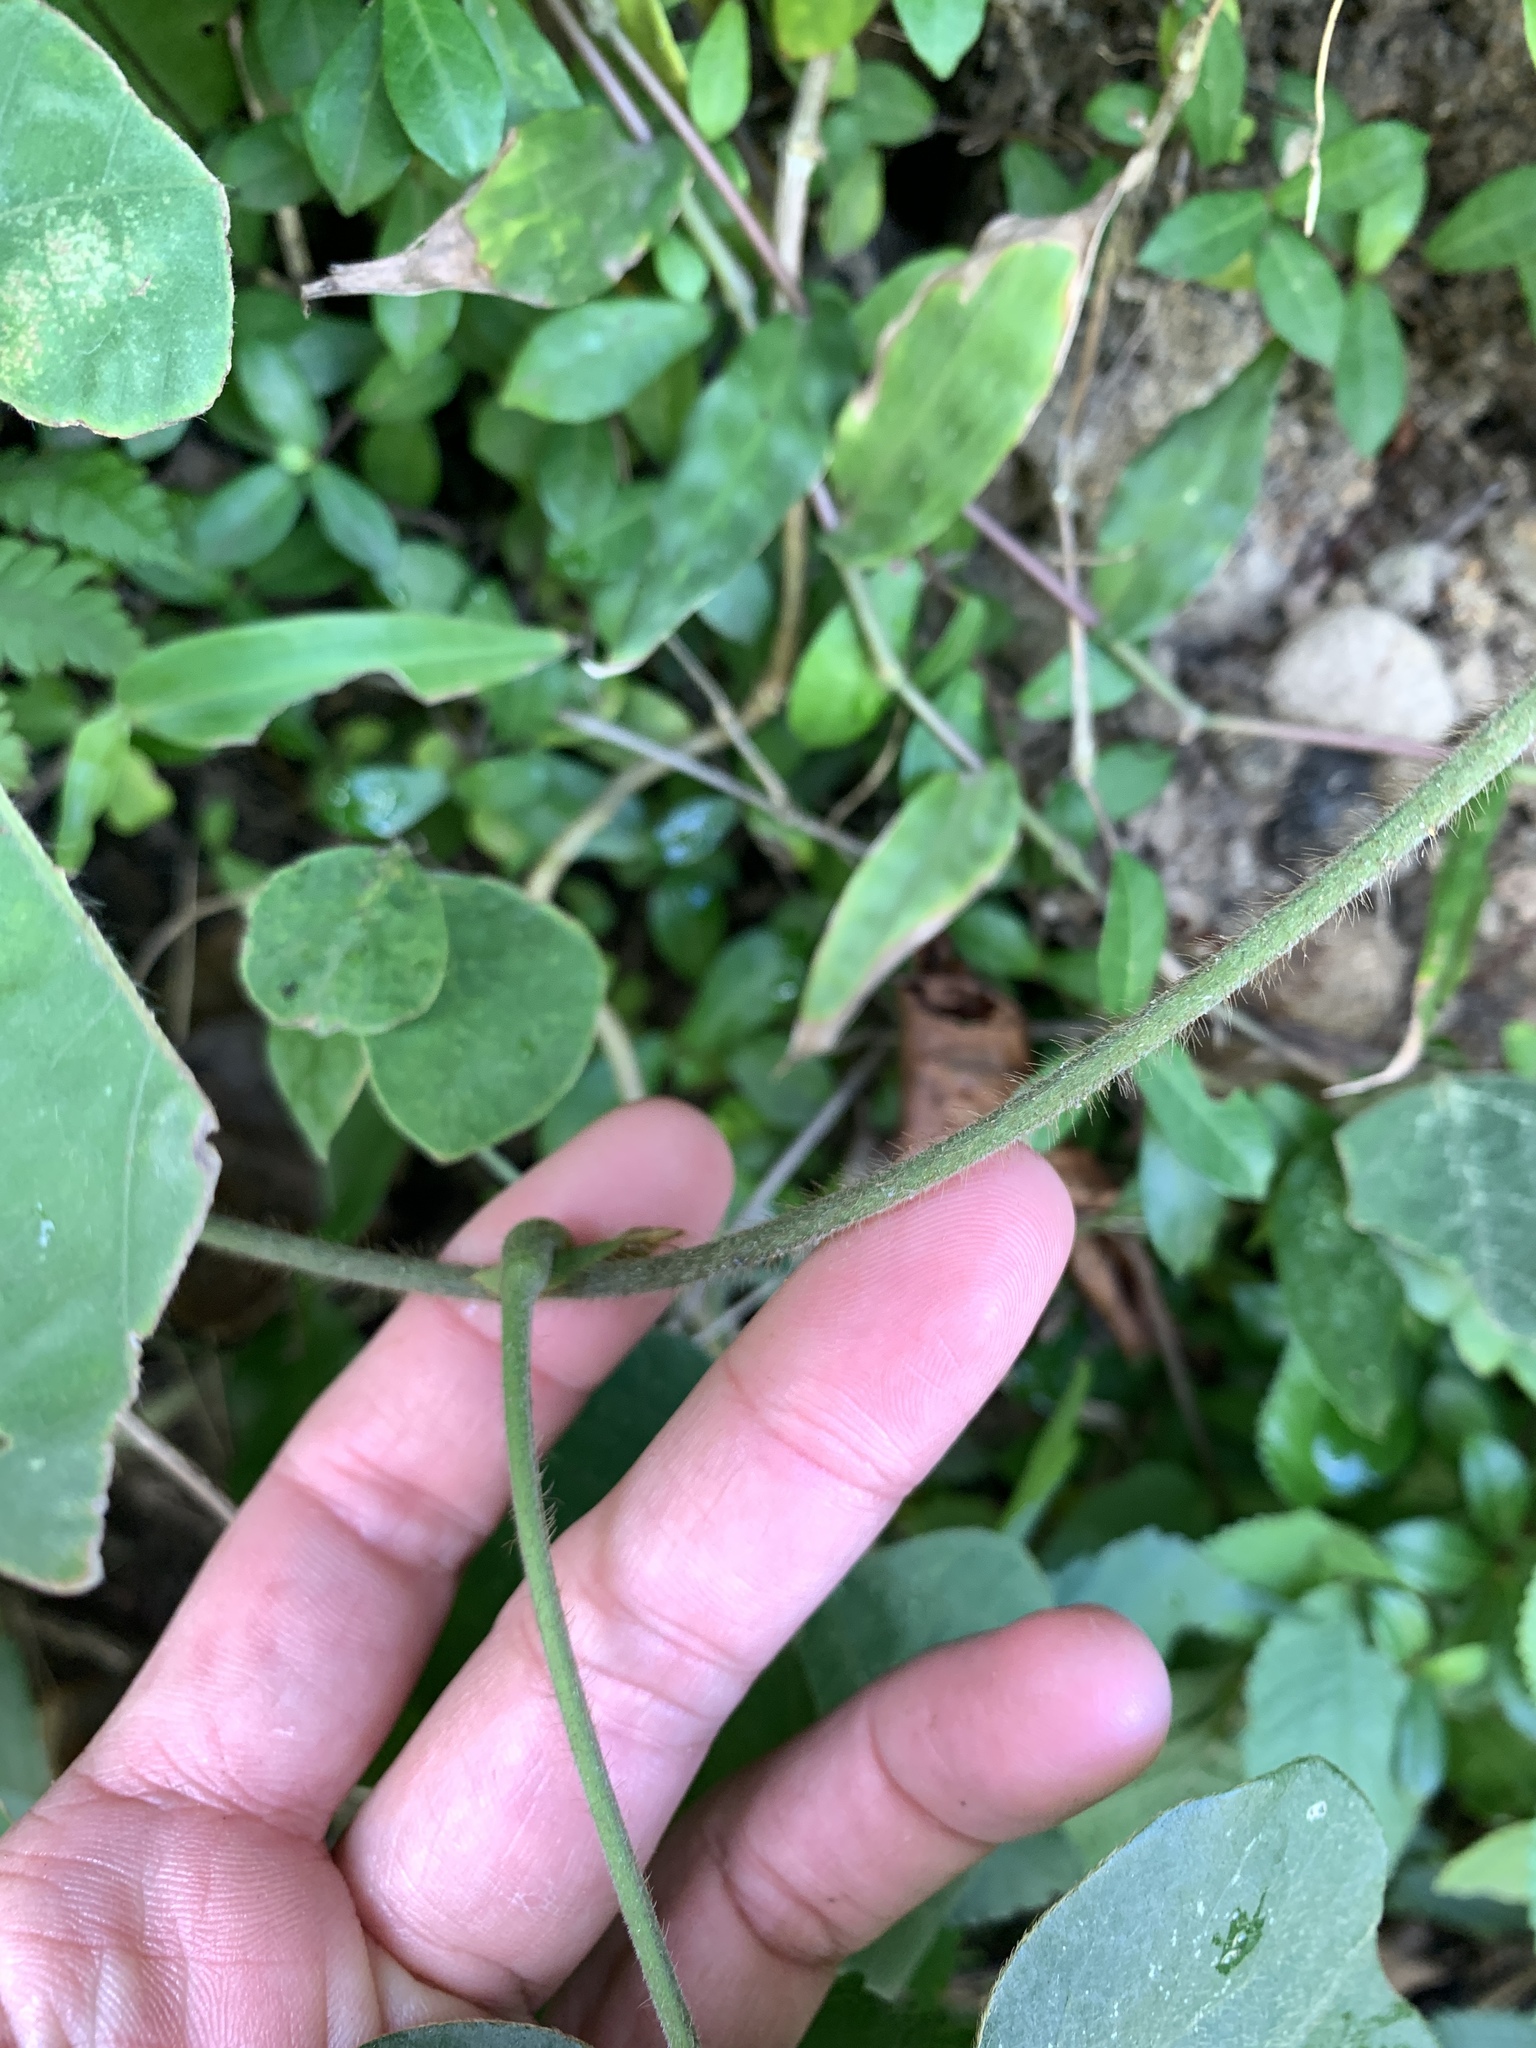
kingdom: Plantae
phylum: Tracheophyta
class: Magnoliopsida
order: Fabales
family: Fabaceae
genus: Pueraria
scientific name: Pueraria montana
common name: Kudzu
